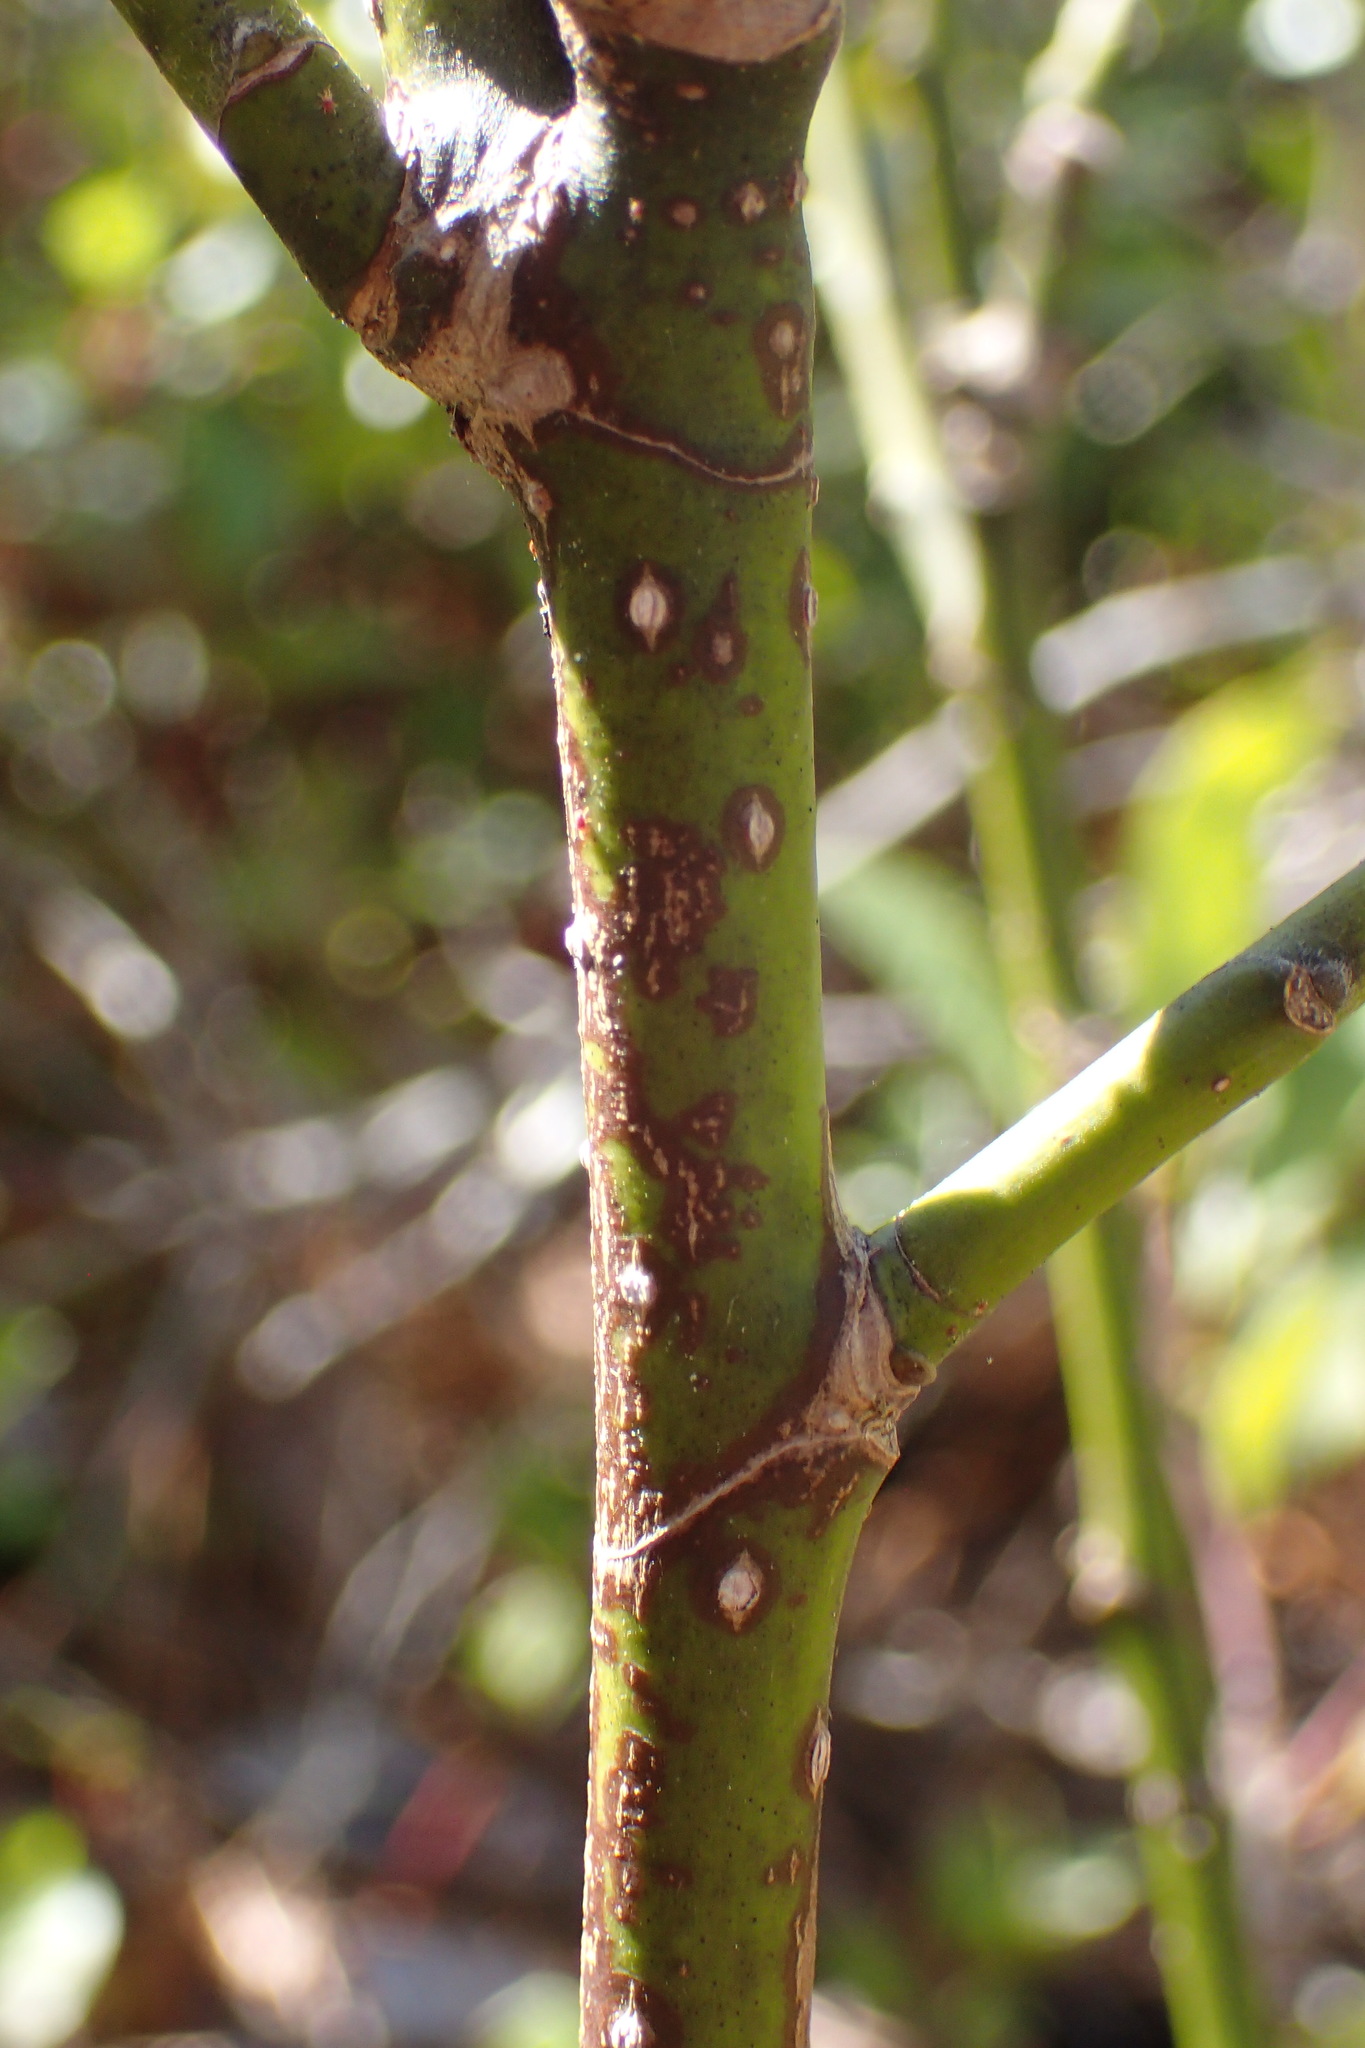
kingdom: Plantae
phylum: Tracheophyta
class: Magnoliopsida
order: Magnoliales
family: Magnoliaceae
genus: Magnolia
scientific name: Magnolia virginiana
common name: Swamp bay
